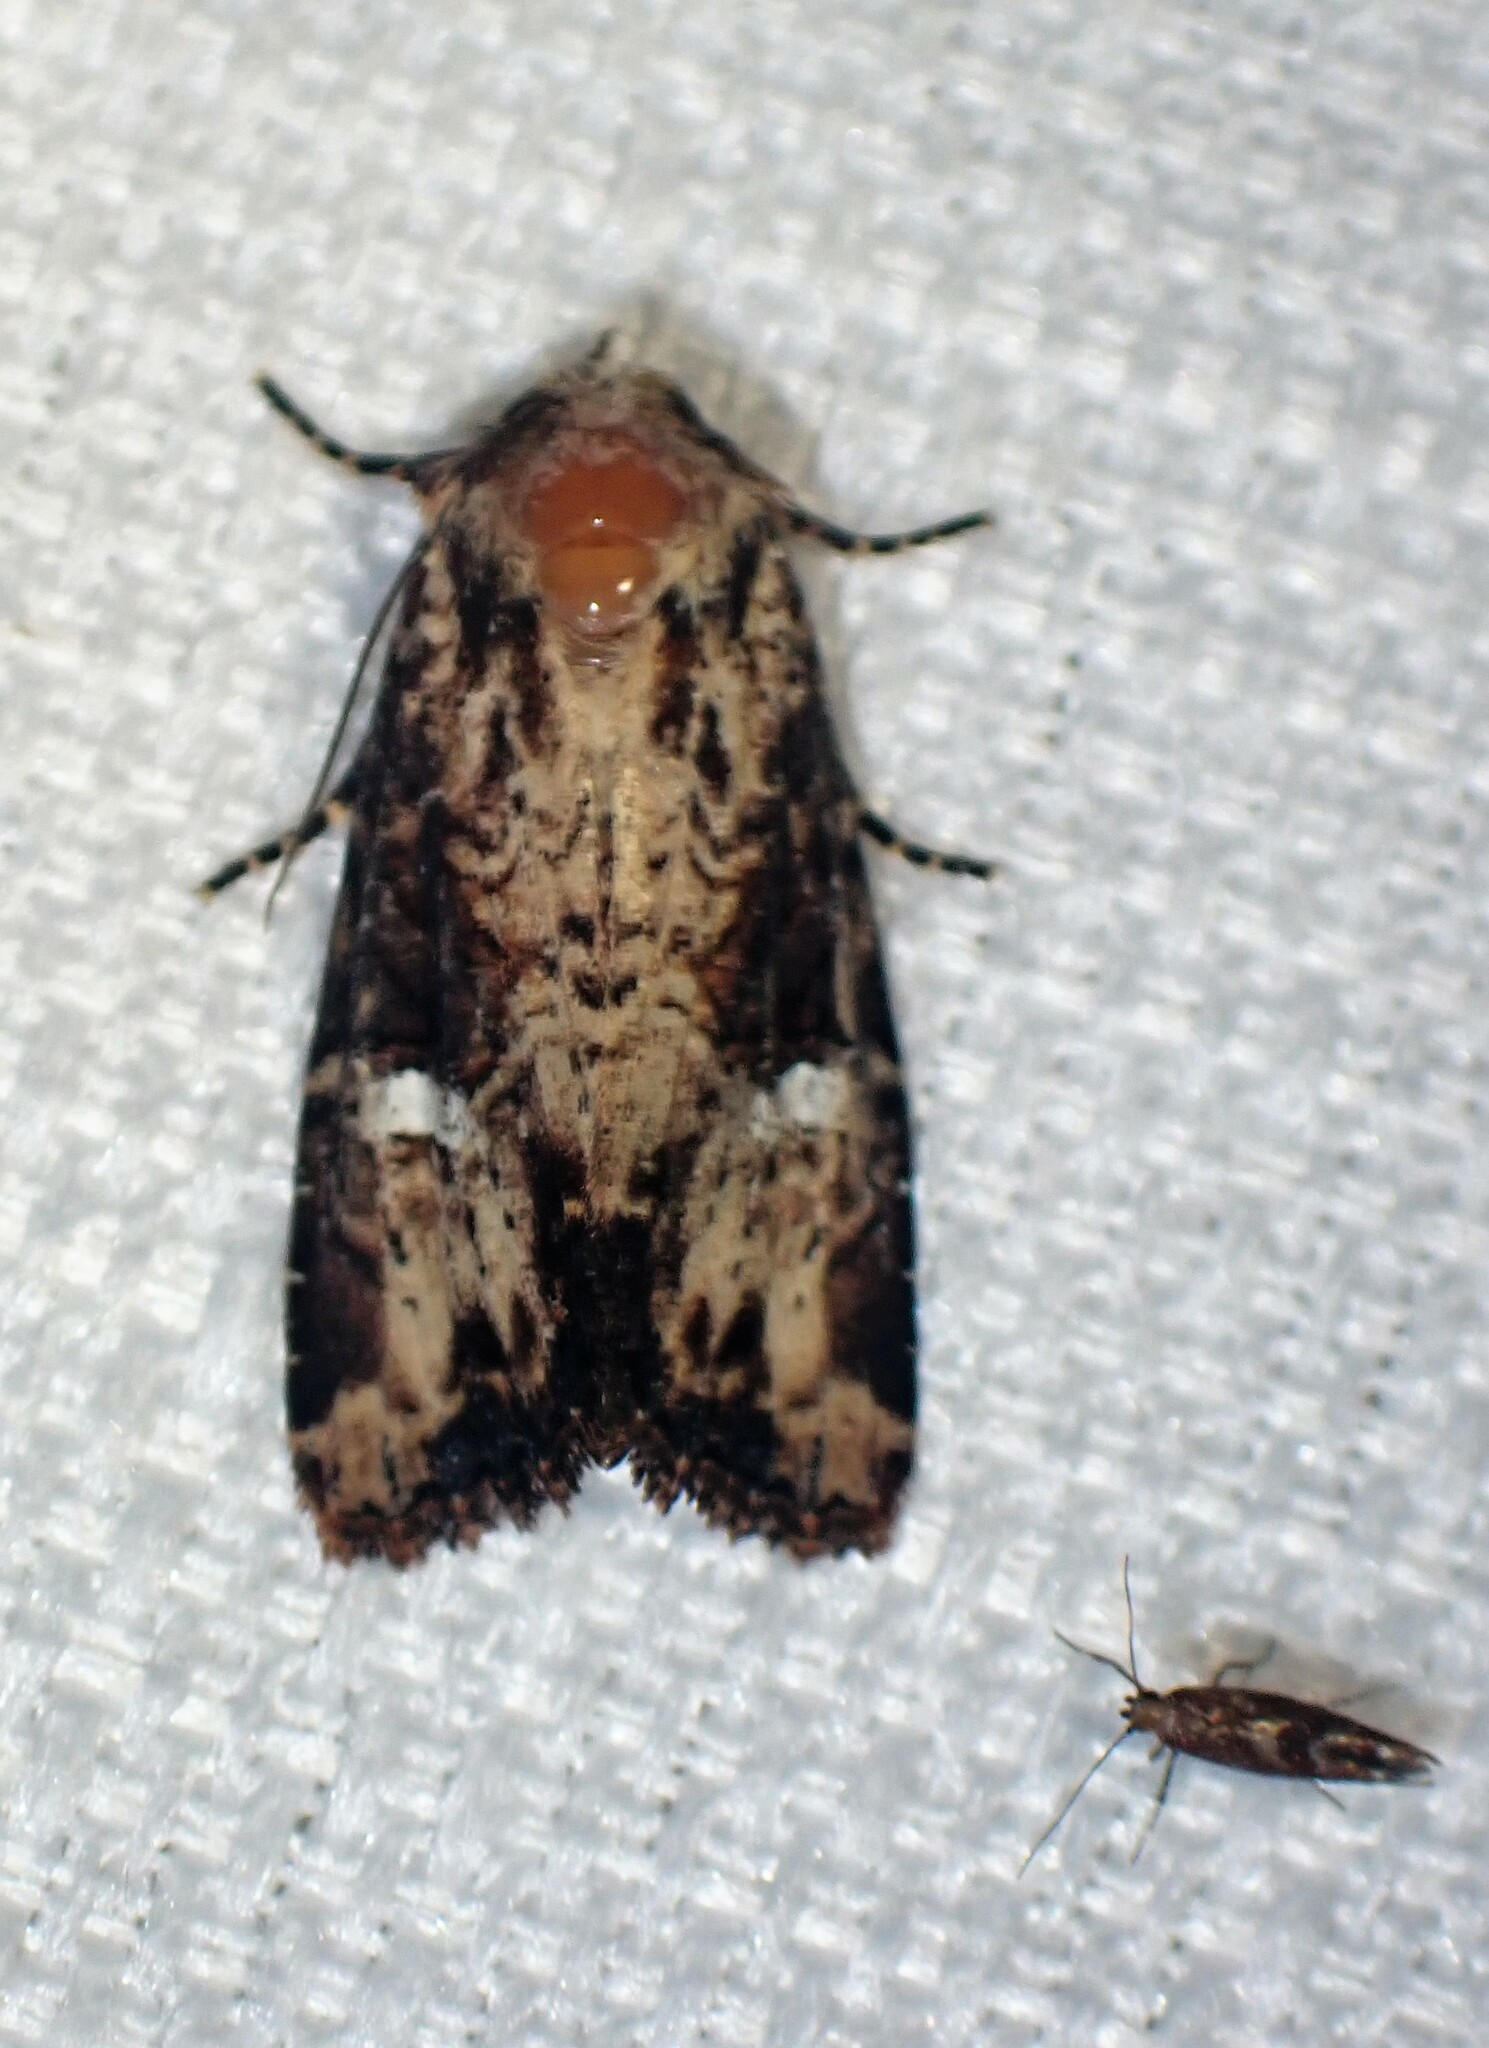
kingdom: Animalia
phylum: Arthropoda
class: Insecta
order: Lepidoptera
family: Noctuidae
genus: Mesapamea
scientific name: Mesapamea storai
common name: Owlet moth
